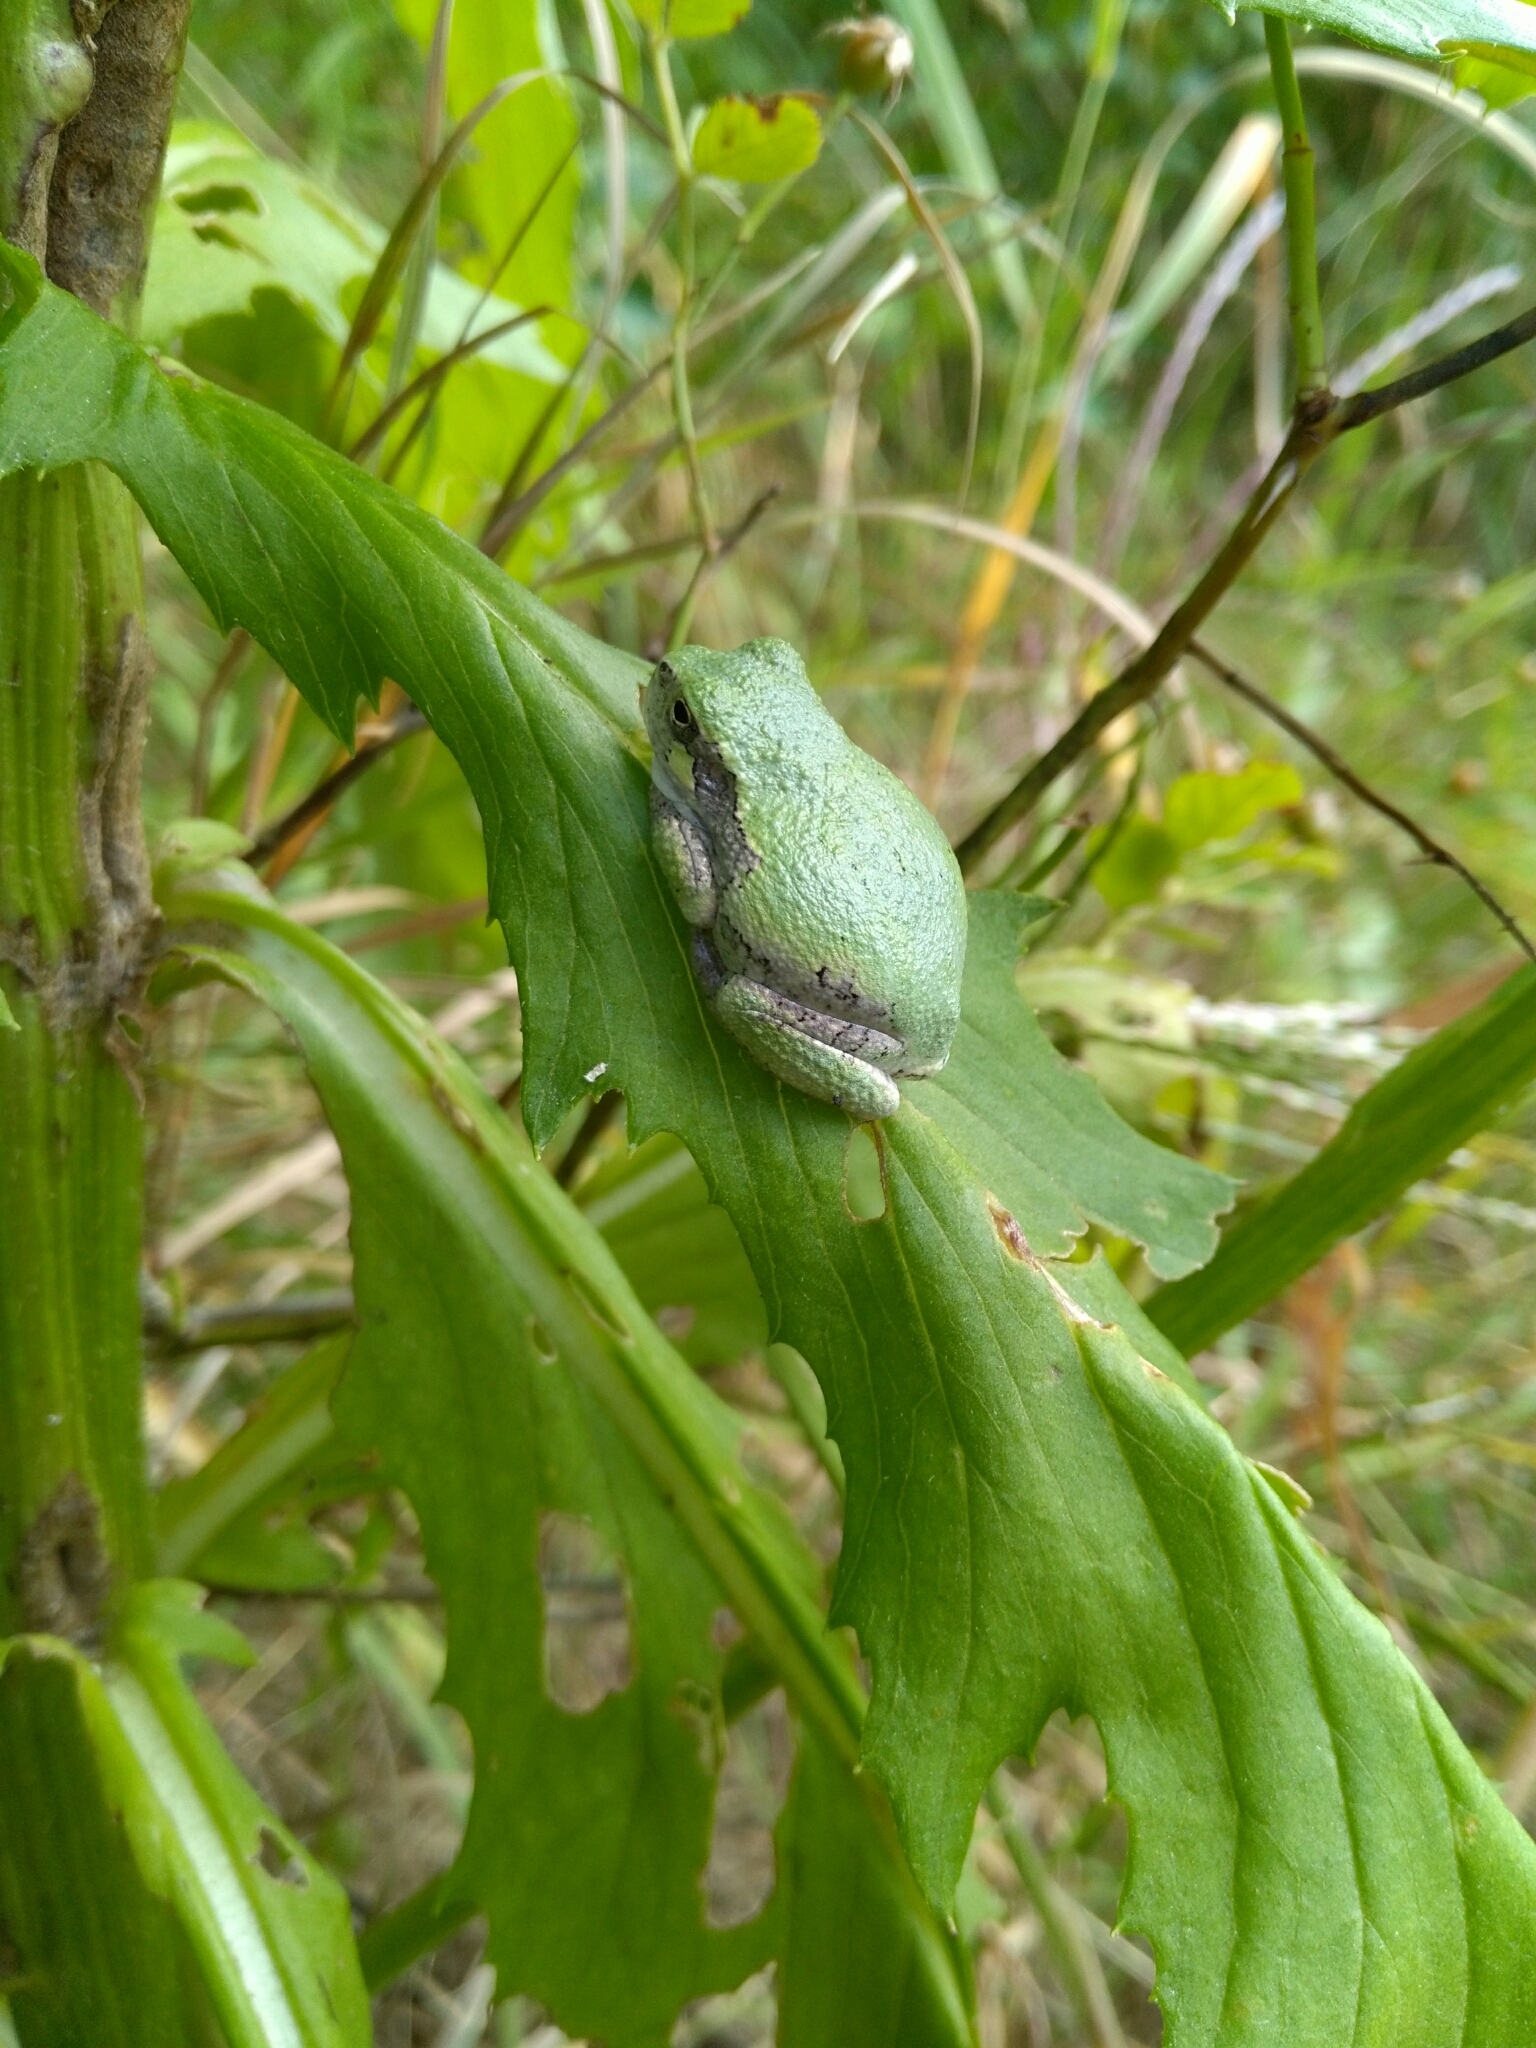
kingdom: Animalia
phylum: Chordata
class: Amphibia
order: Anura
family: Hylidae
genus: Dryophytes
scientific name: Dryophytes versicolor
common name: Gray treefrog
